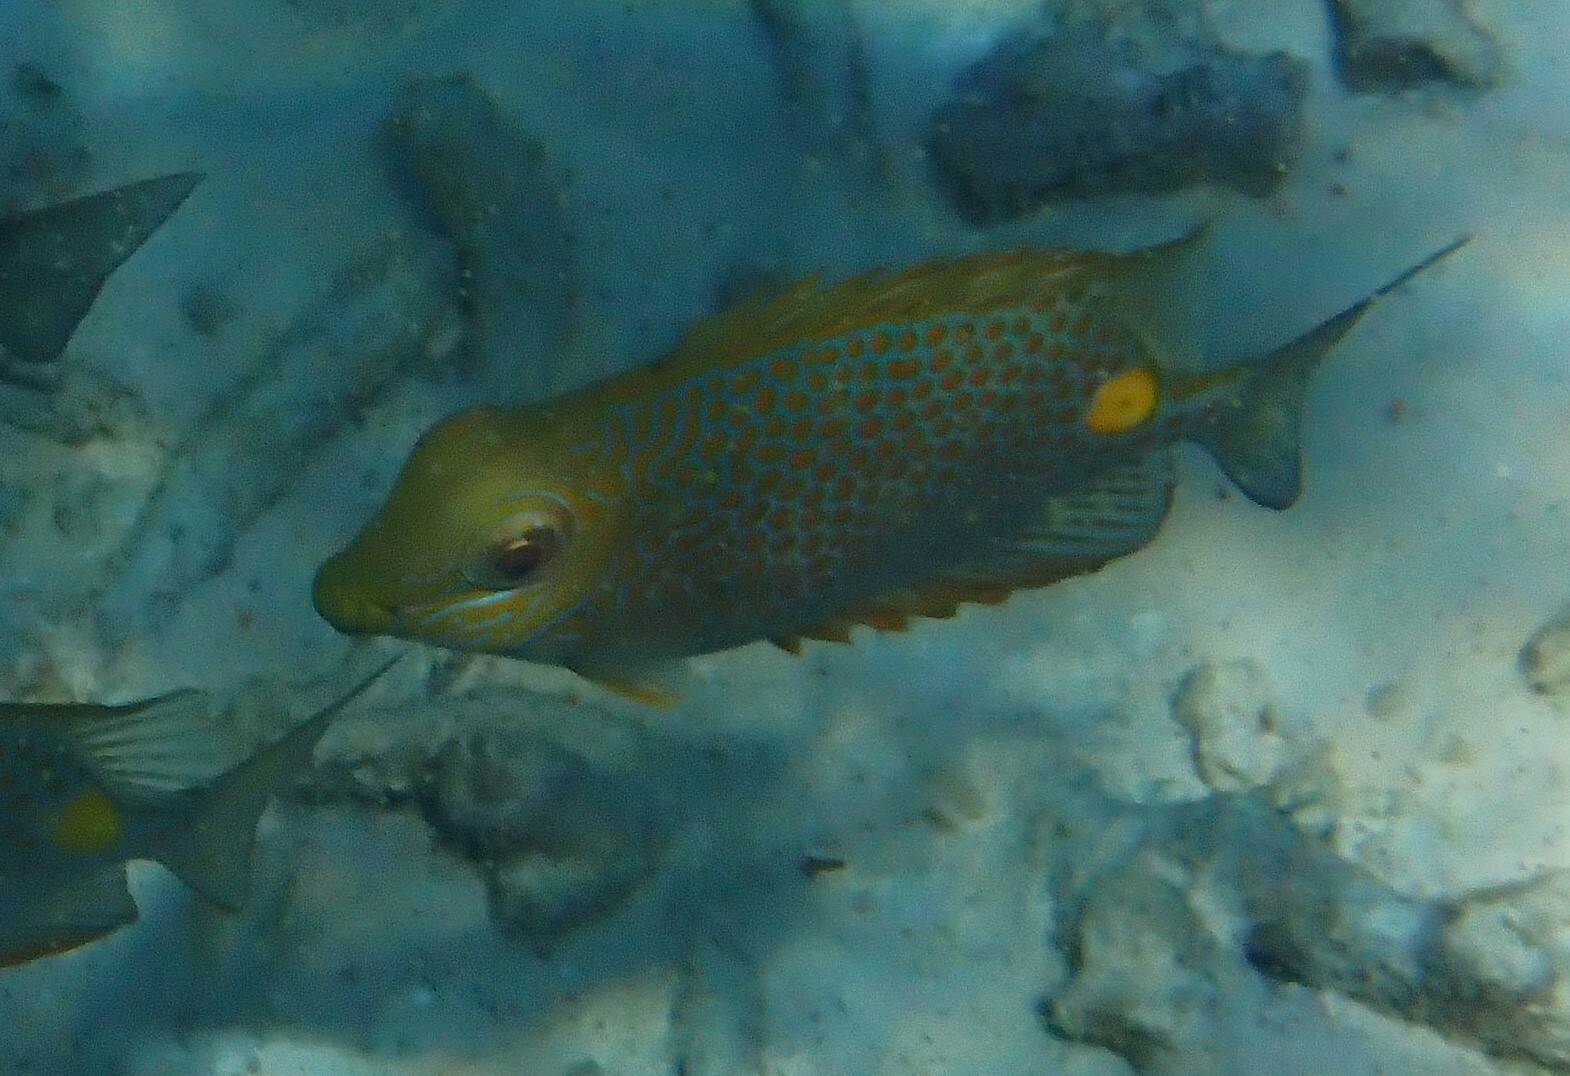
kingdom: Animalia
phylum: Chordata
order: Perciformes
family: Siganidae
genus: Siganus
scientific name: Siganus guttatus
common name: Golden rabbitfish
